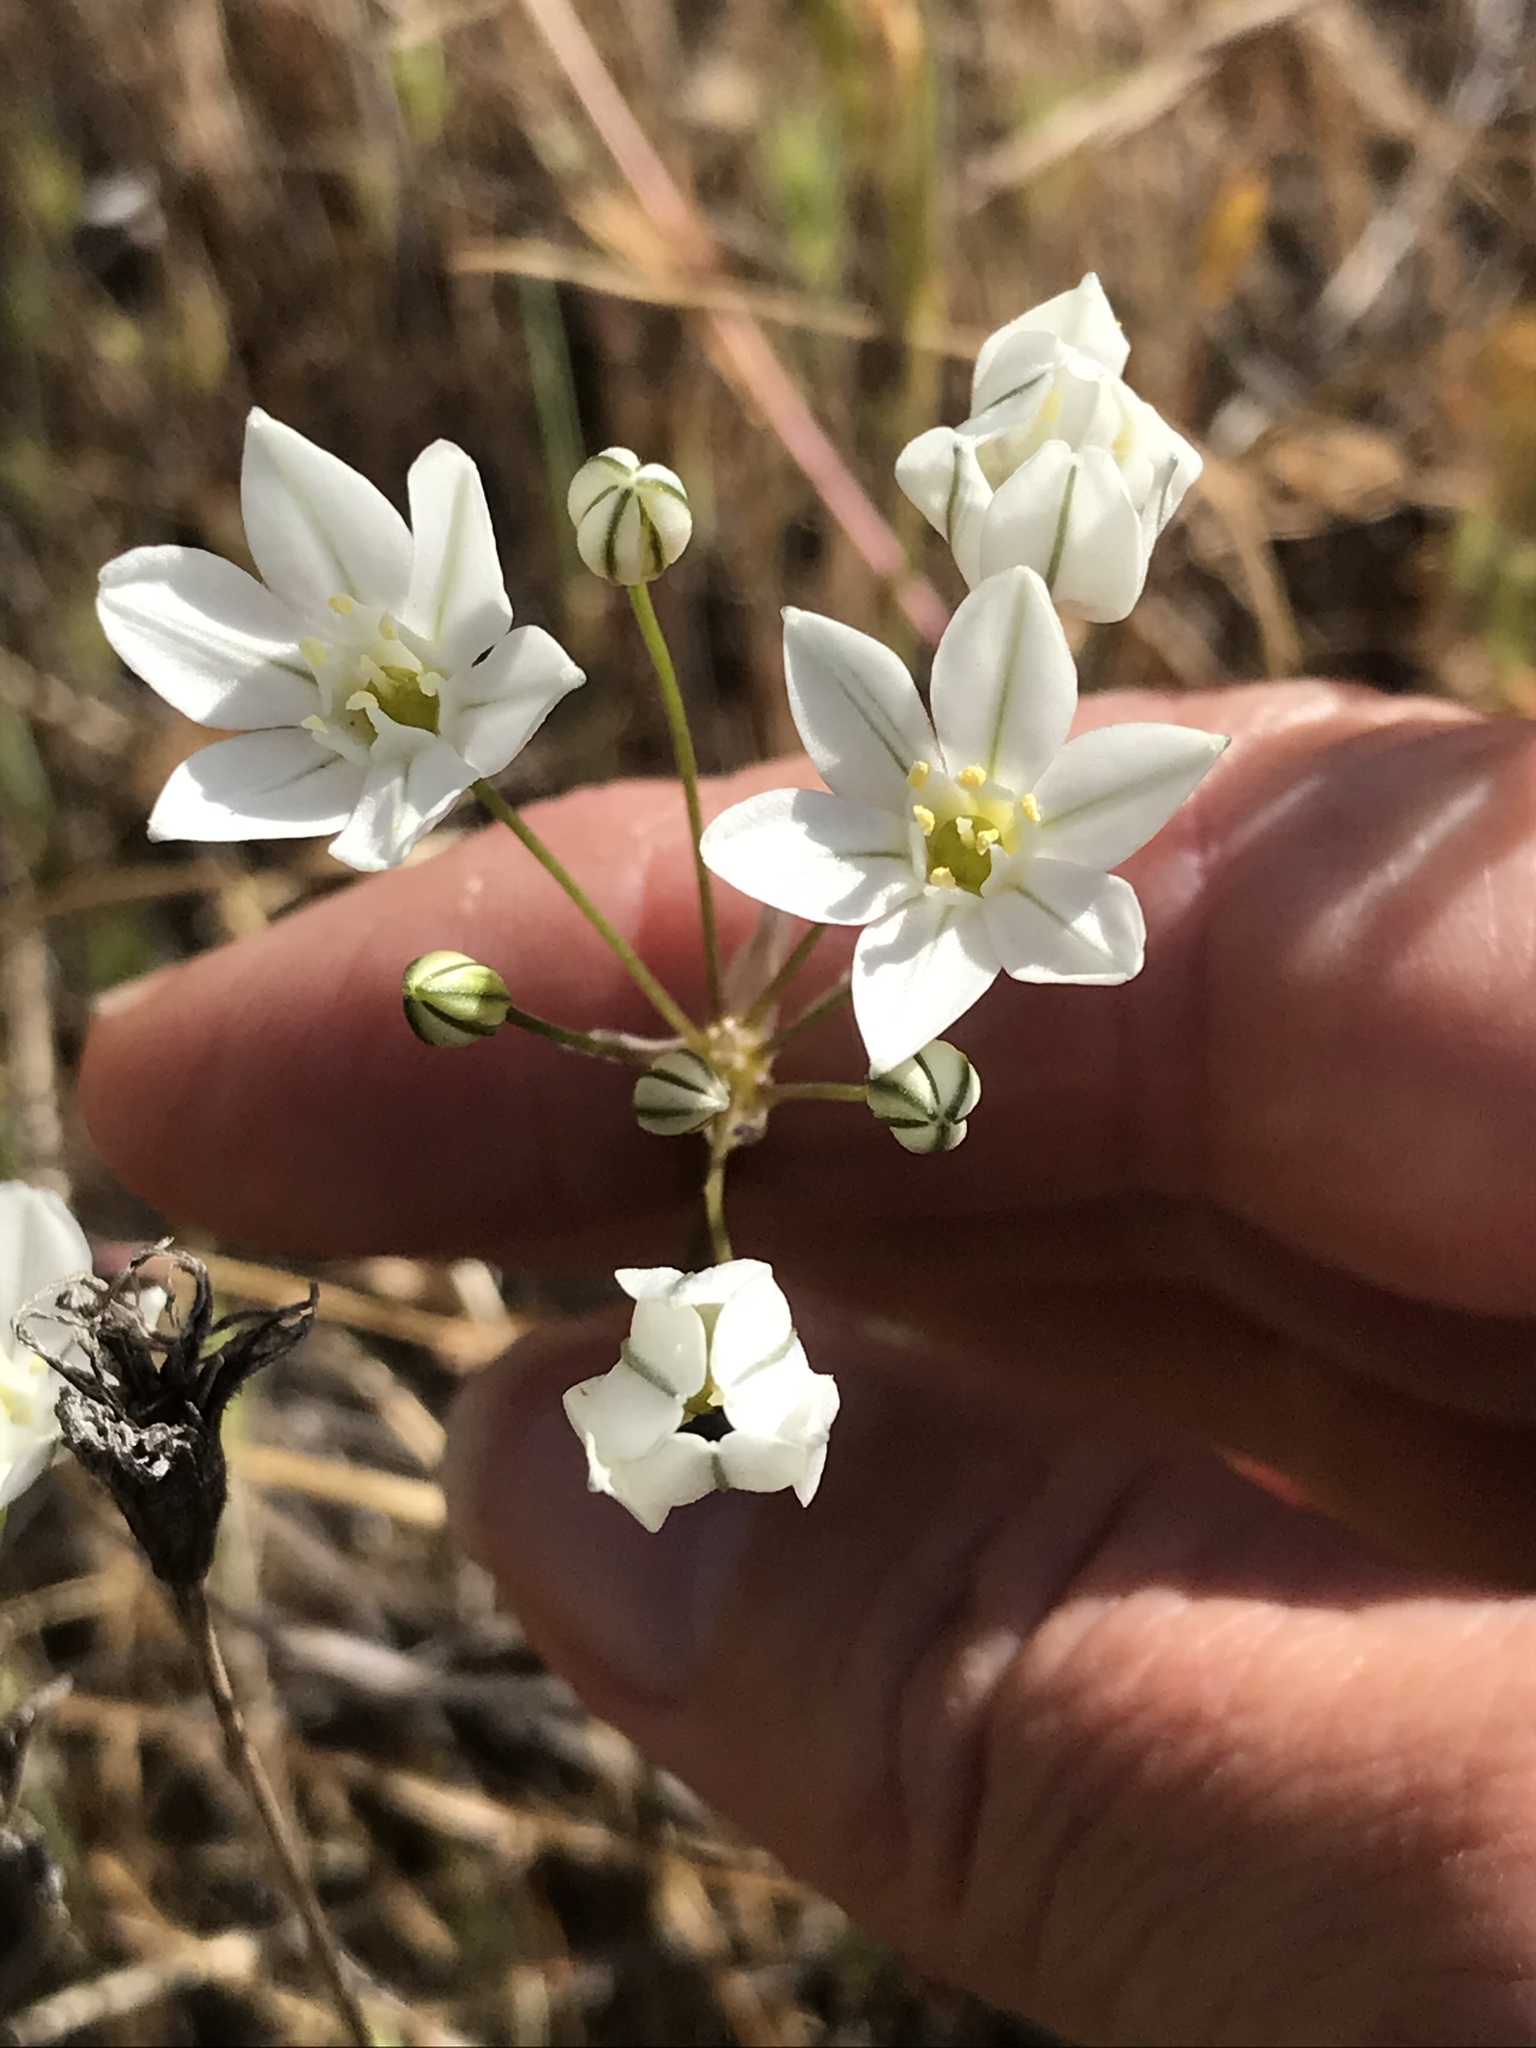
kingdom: Plantae
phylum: Tracheophyta
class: Liliopsida
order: Asparagales
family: Asparagaceae
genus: Triteleia
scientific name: Triteleia hyacinthina
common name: White brodiaea
